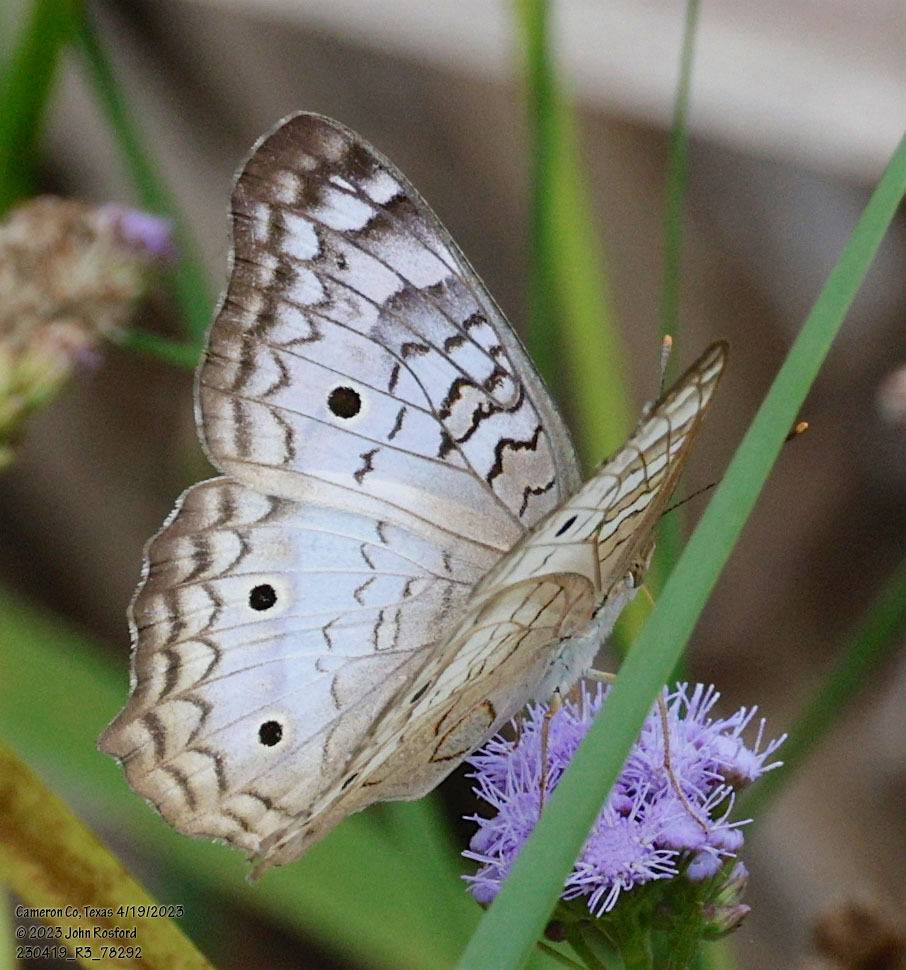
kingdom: Animalia
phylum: Arthropoda
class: Insecta
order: Lepidoptera
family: Nymphalidae
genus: Anartia
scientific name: Anartia jatrophae
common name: White peacock
